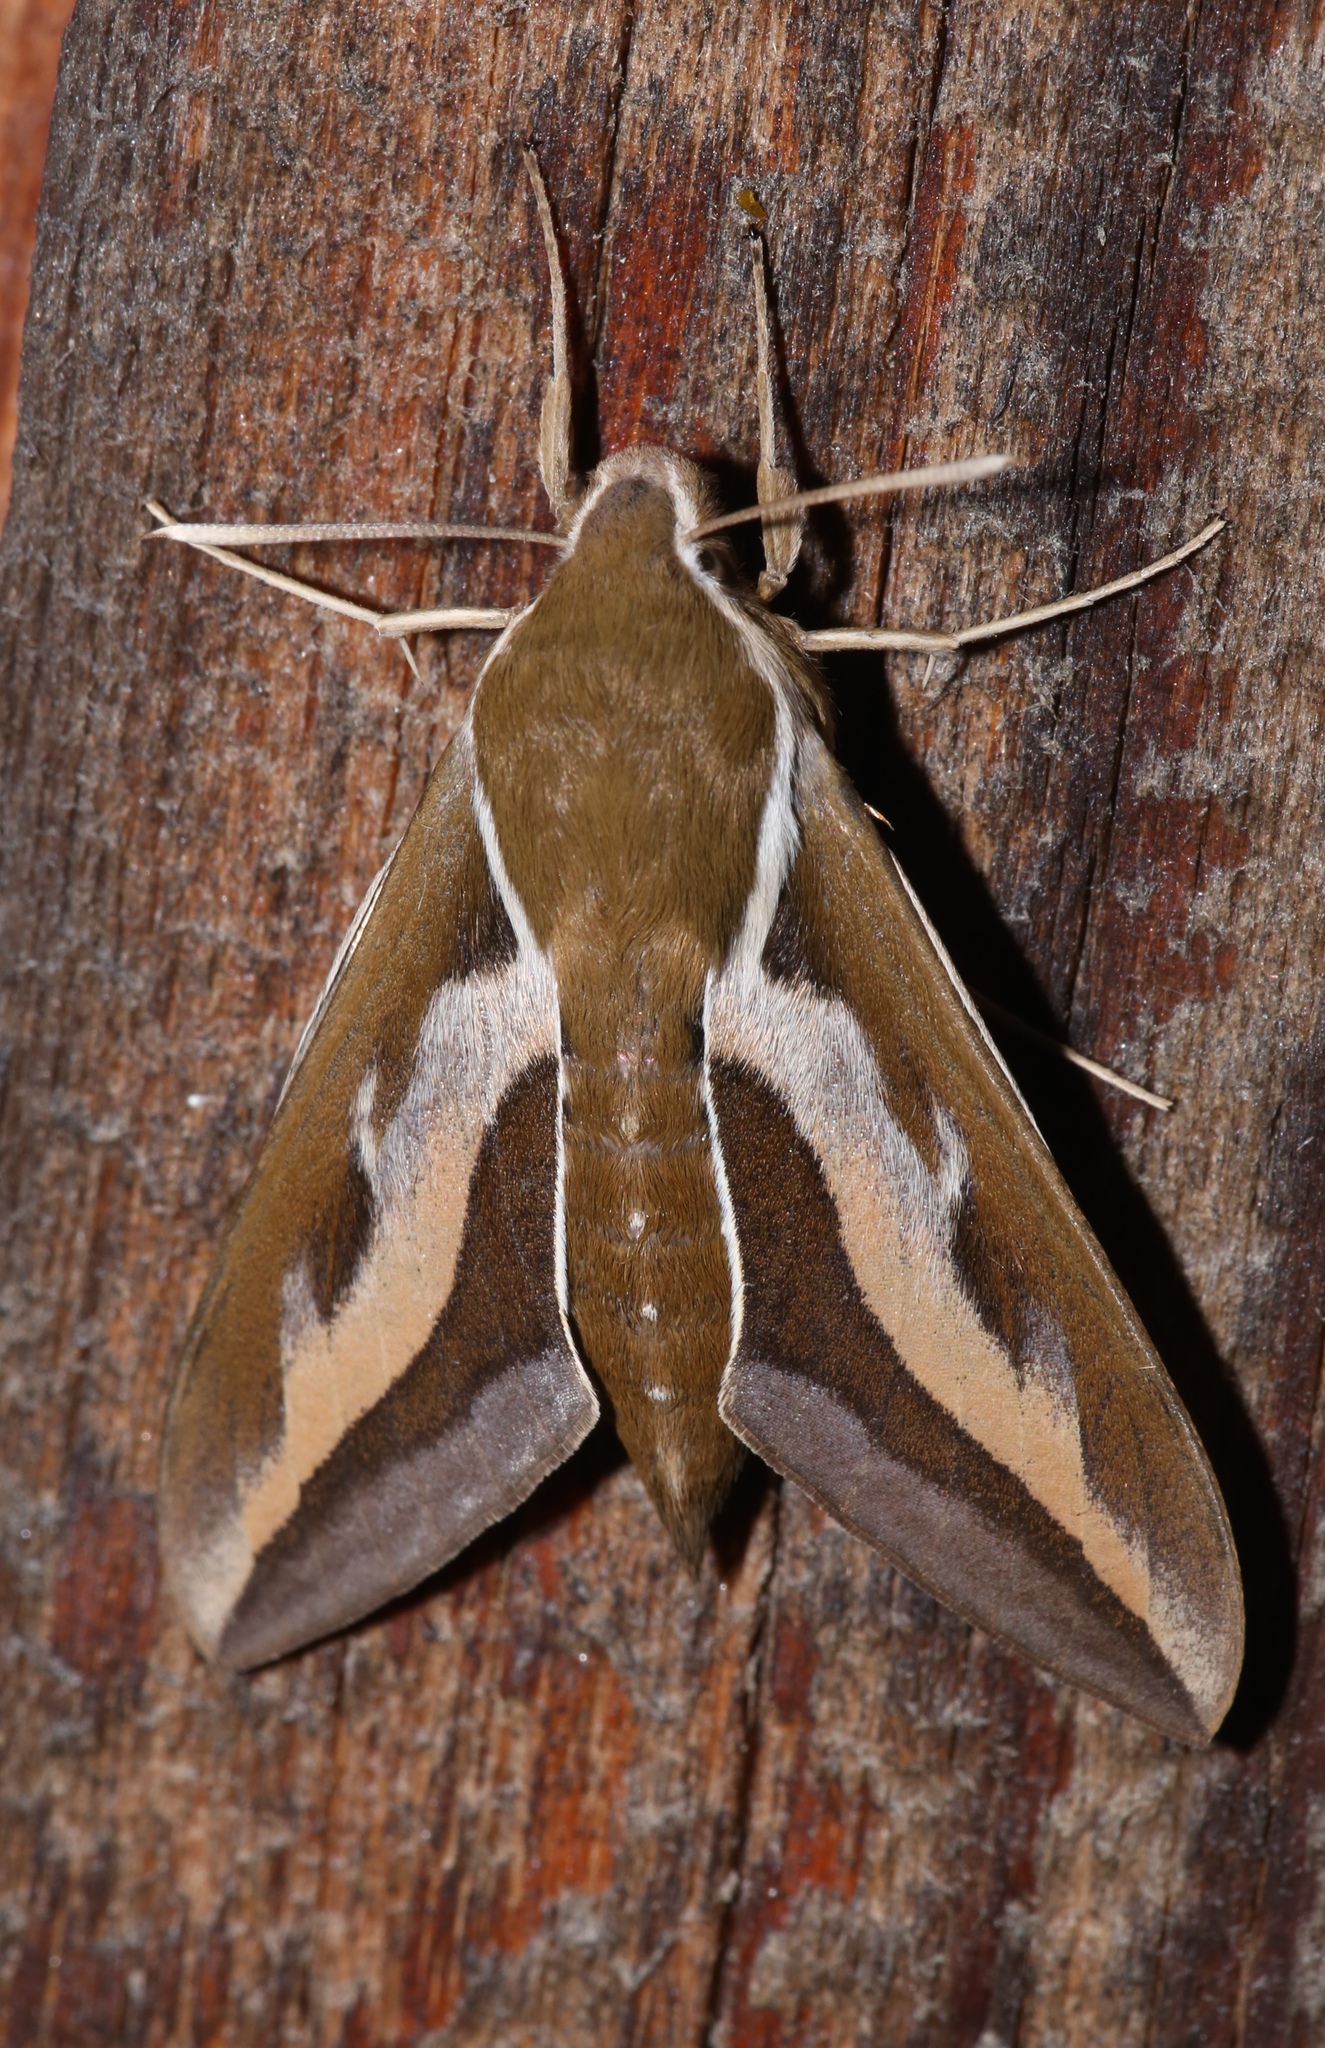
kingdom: Animalia
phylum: Arthropoda
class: Insecta
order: Lepidoptera
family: Sphingidae
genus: Hyles
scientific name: Hyles gallii
